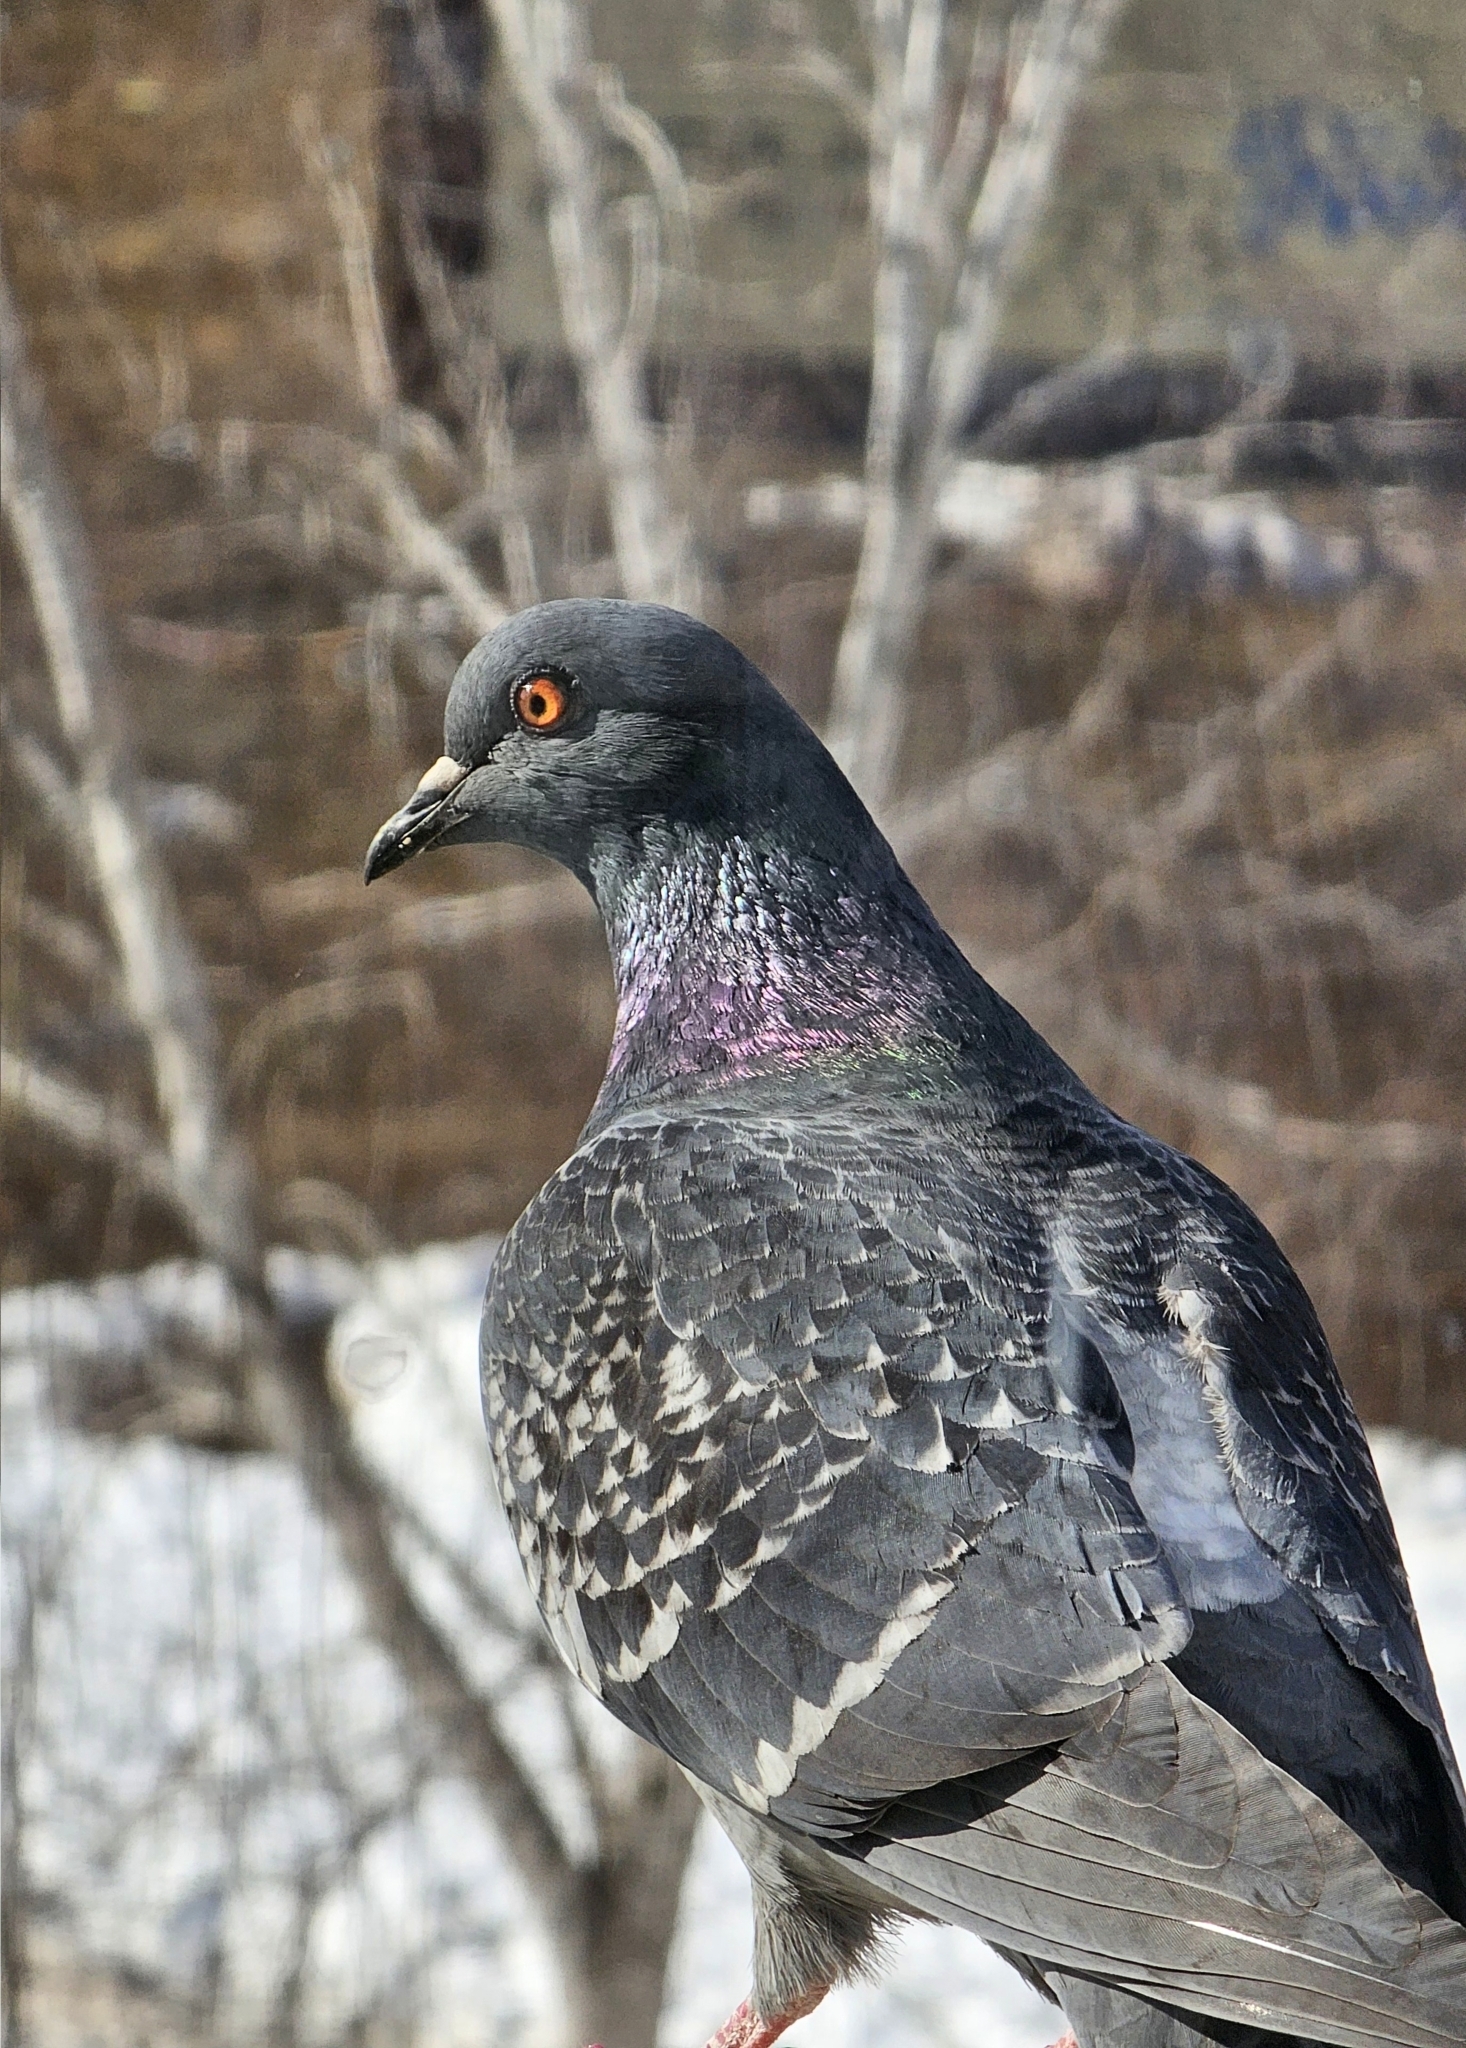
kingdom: Animalia
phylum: Chordata
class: Aves
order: Columbiformes
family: Columbidae
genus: Columba
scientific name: Columba livia
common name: Rock pigeon
